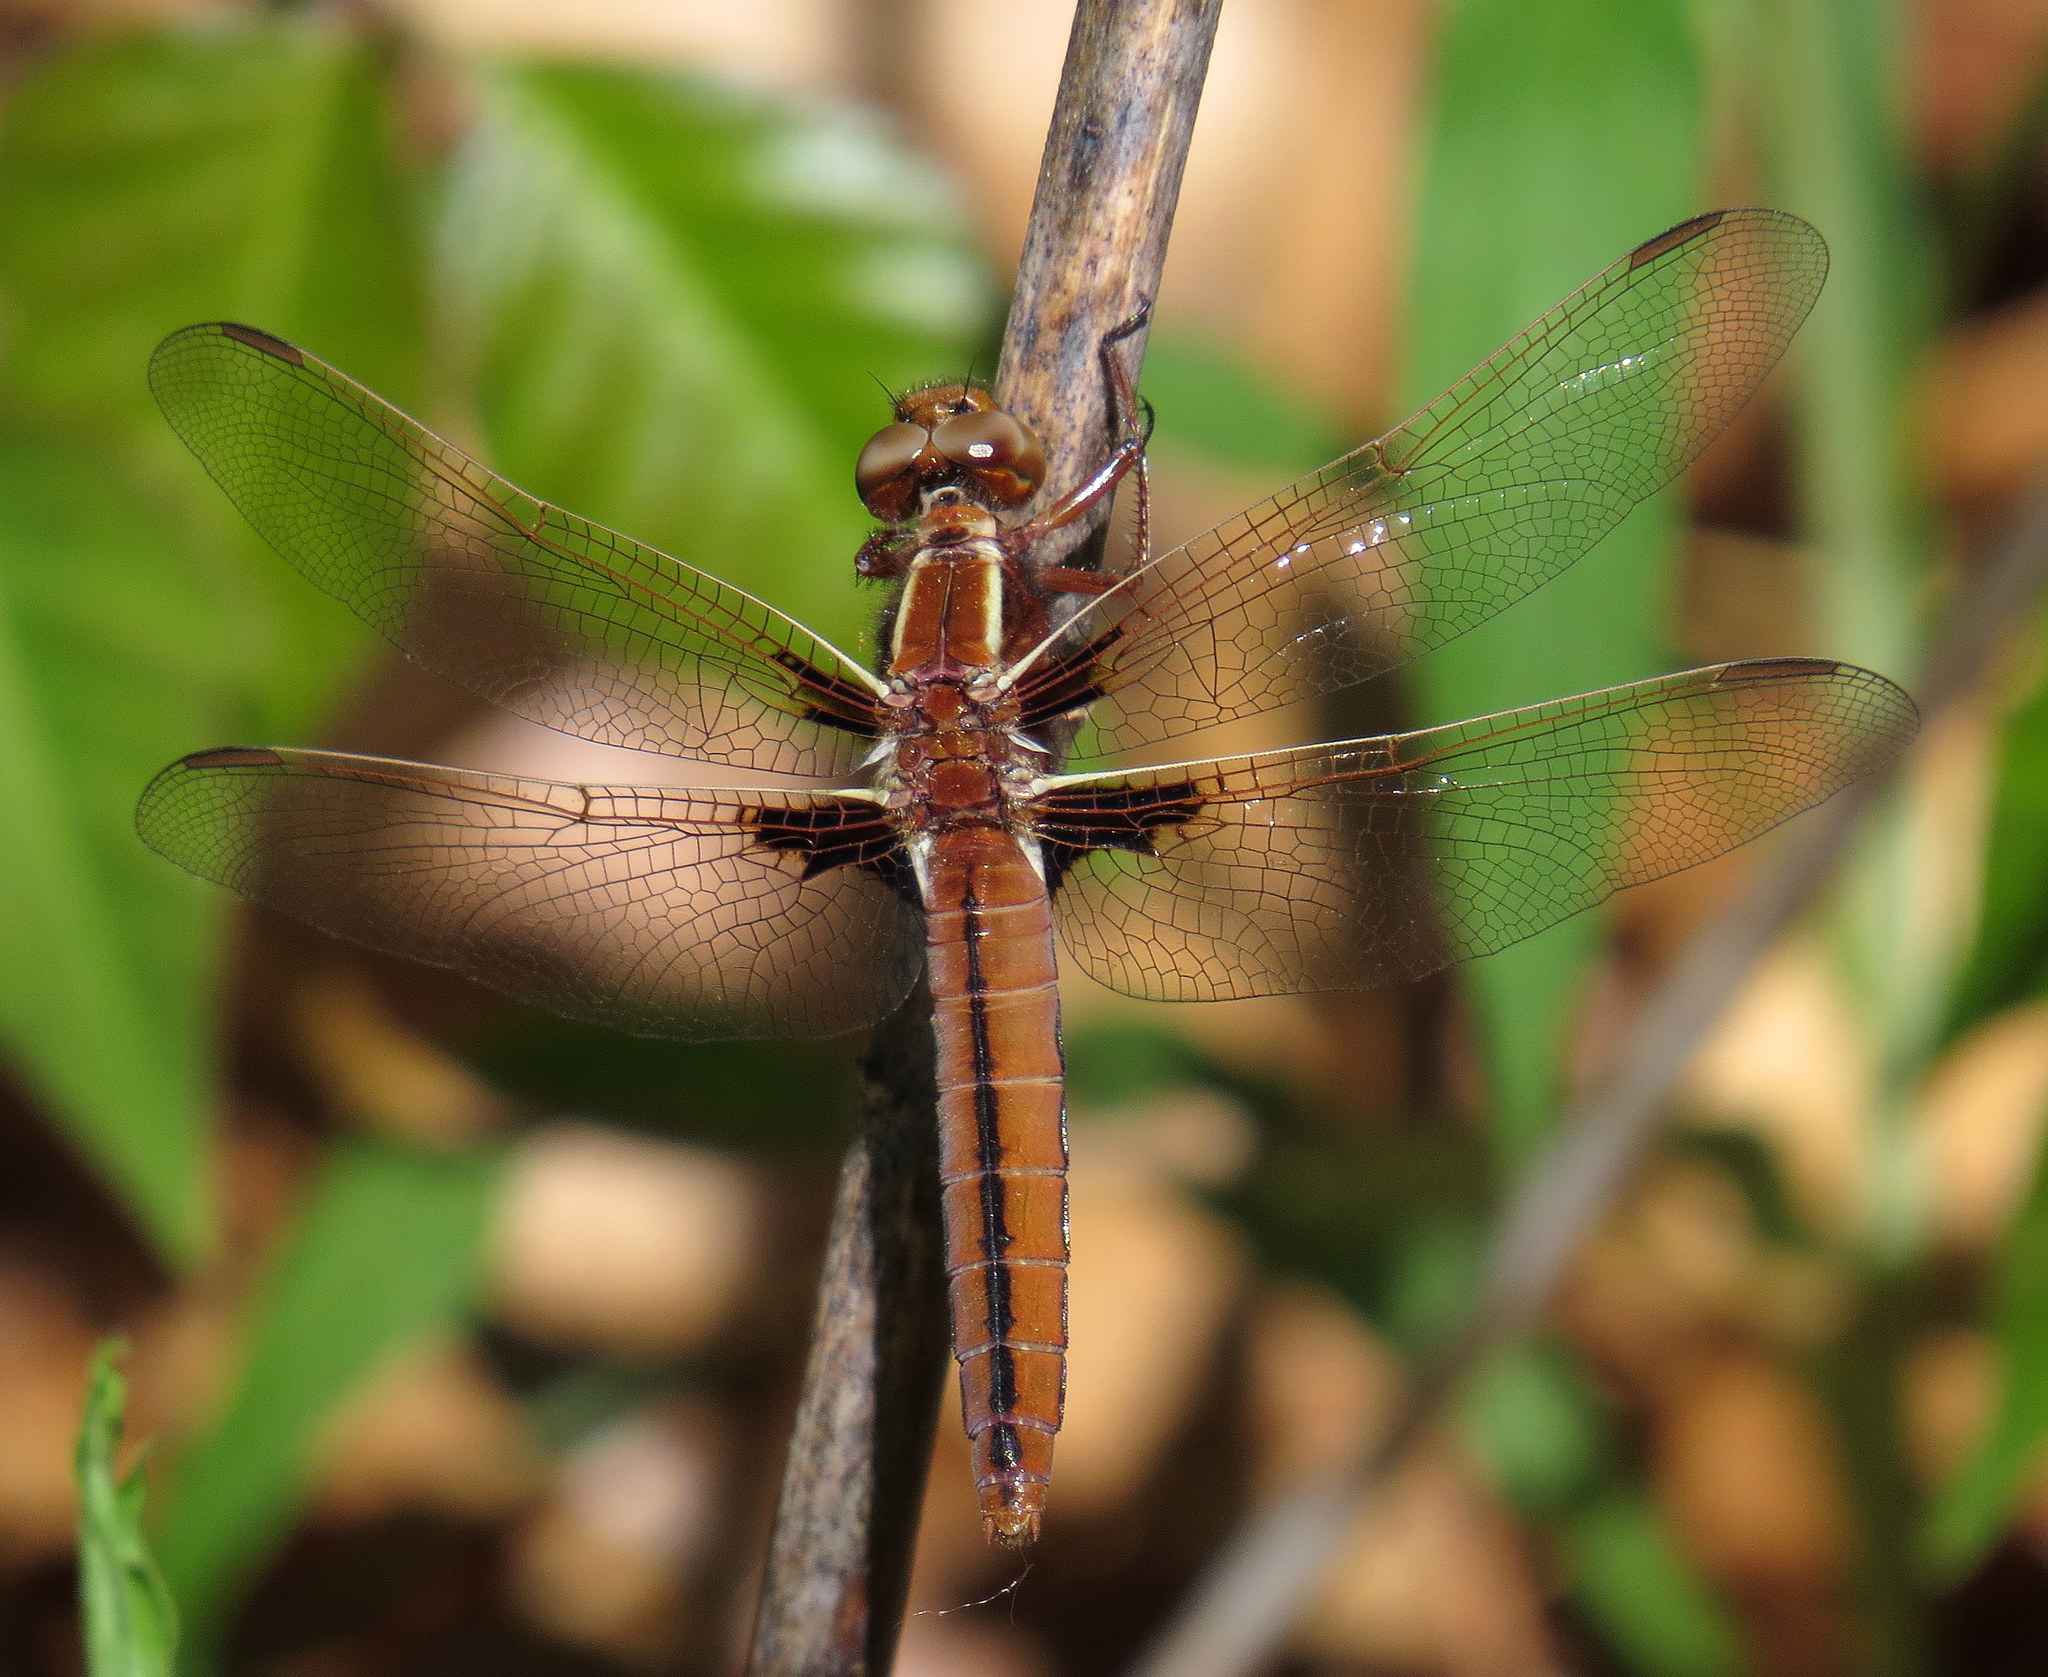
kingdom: Animalia
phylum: Arthropoda
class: Insecta
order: Odonata
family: Libellulidae
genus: Ladona
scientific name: Ladona exusta
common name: Libellule embrasée
